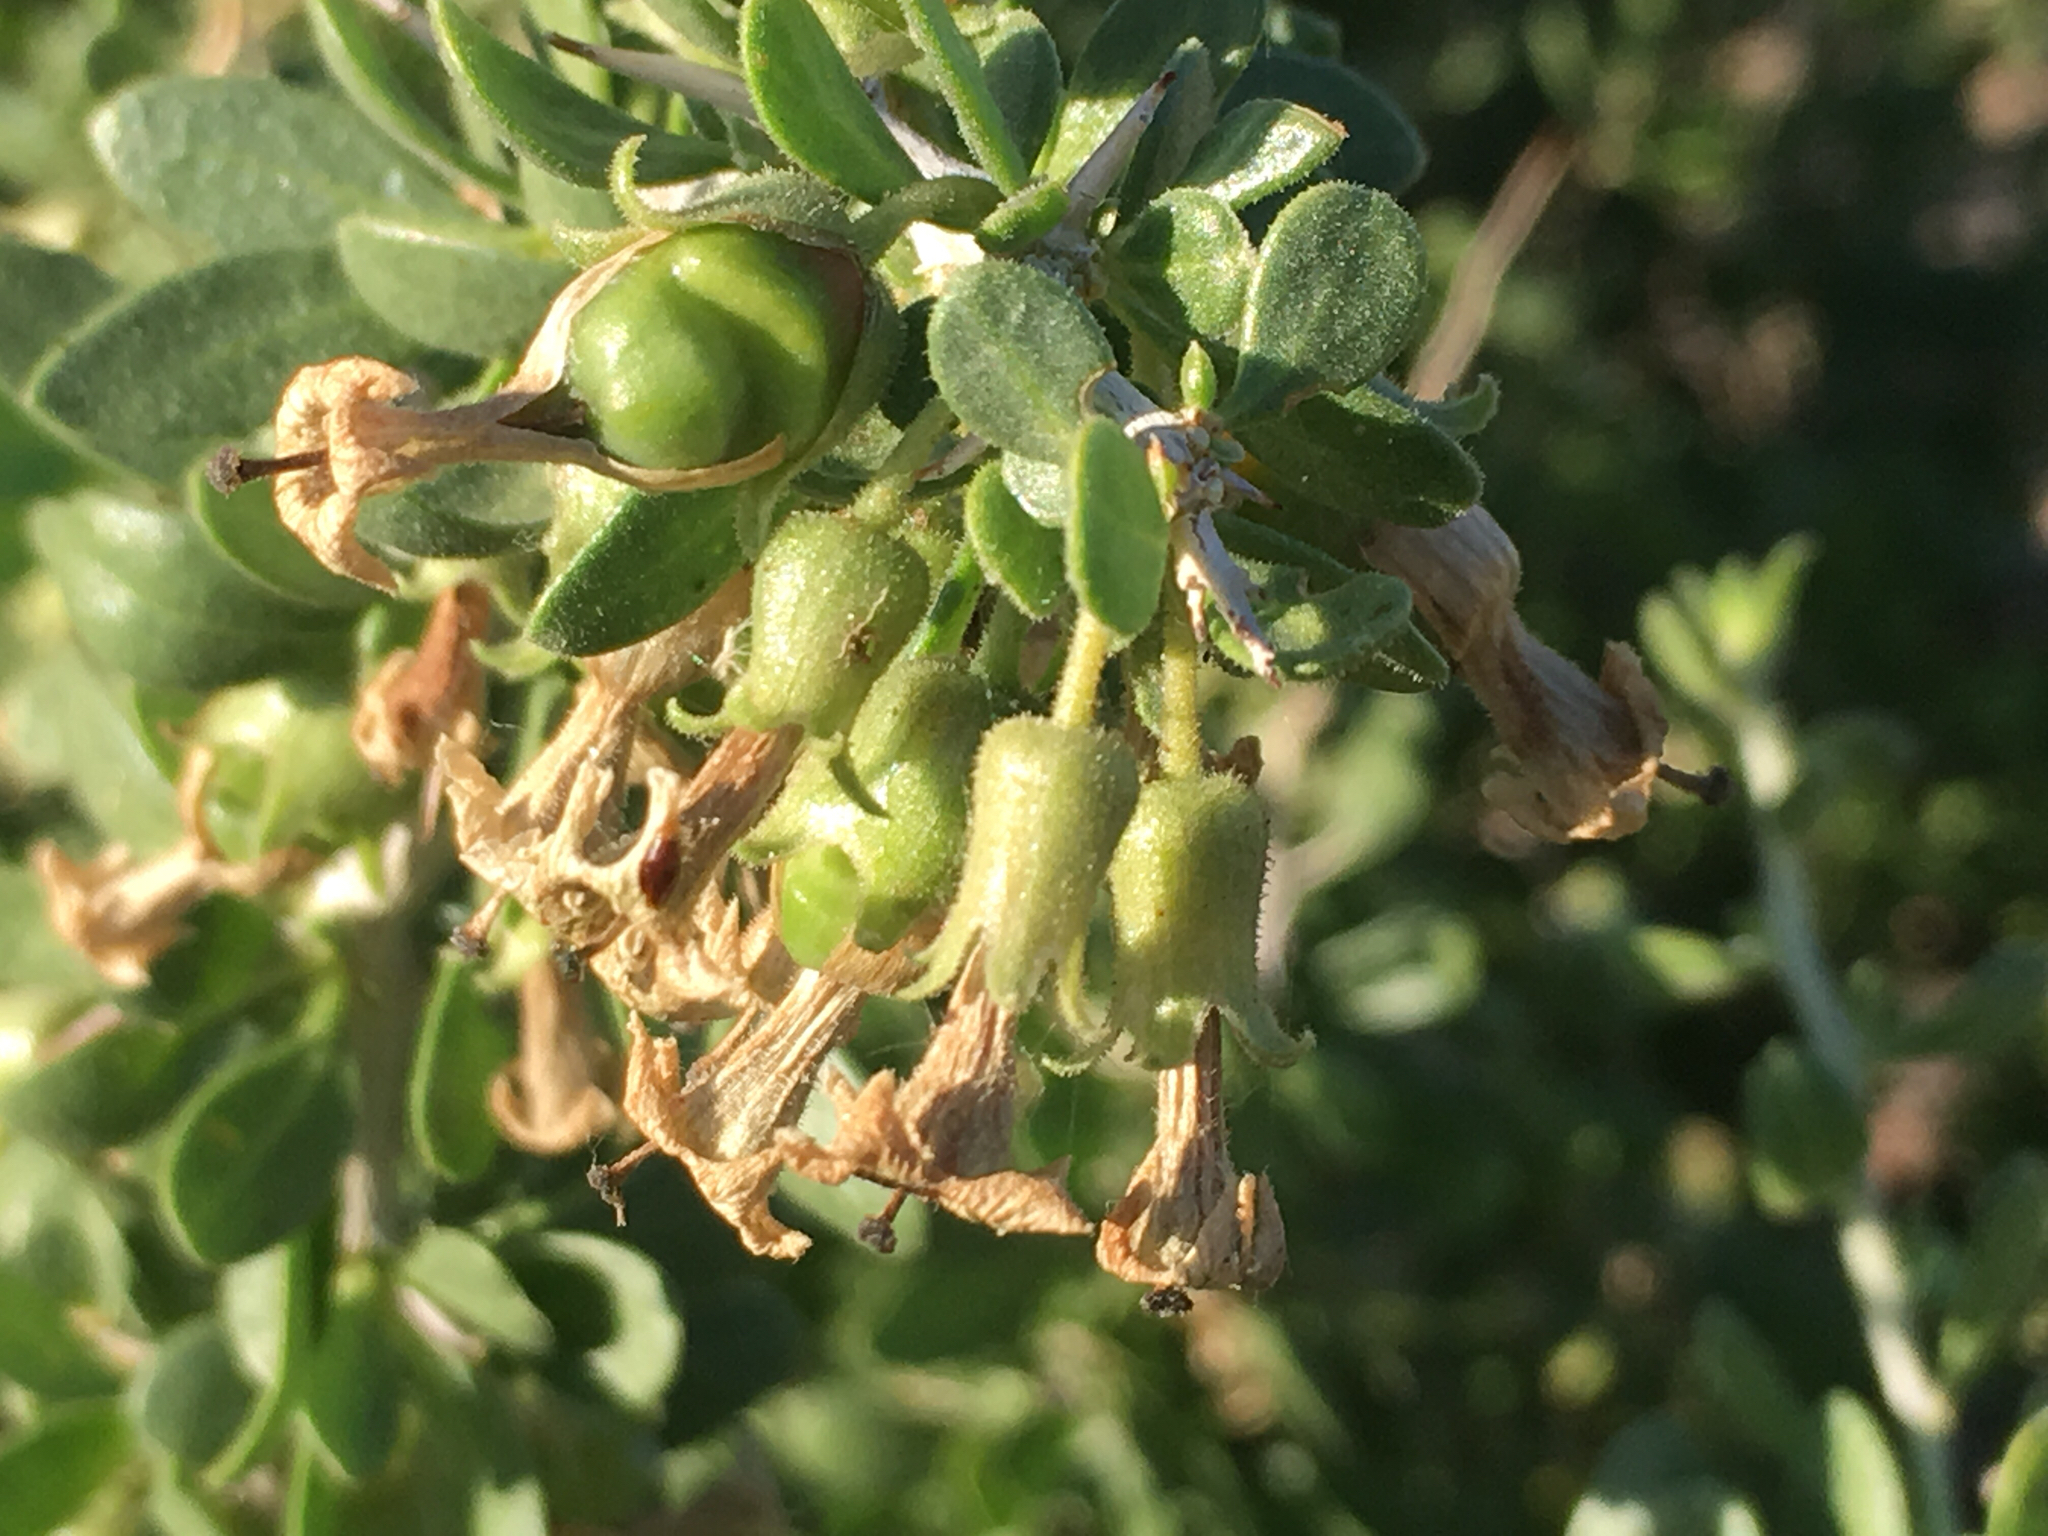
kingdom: Plantae
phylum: Tracheophyta
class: Magnoliopsida
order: Solanales
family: Solanaceae
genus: Lycium
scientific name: Lycium cooperi
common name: Peachthorn
